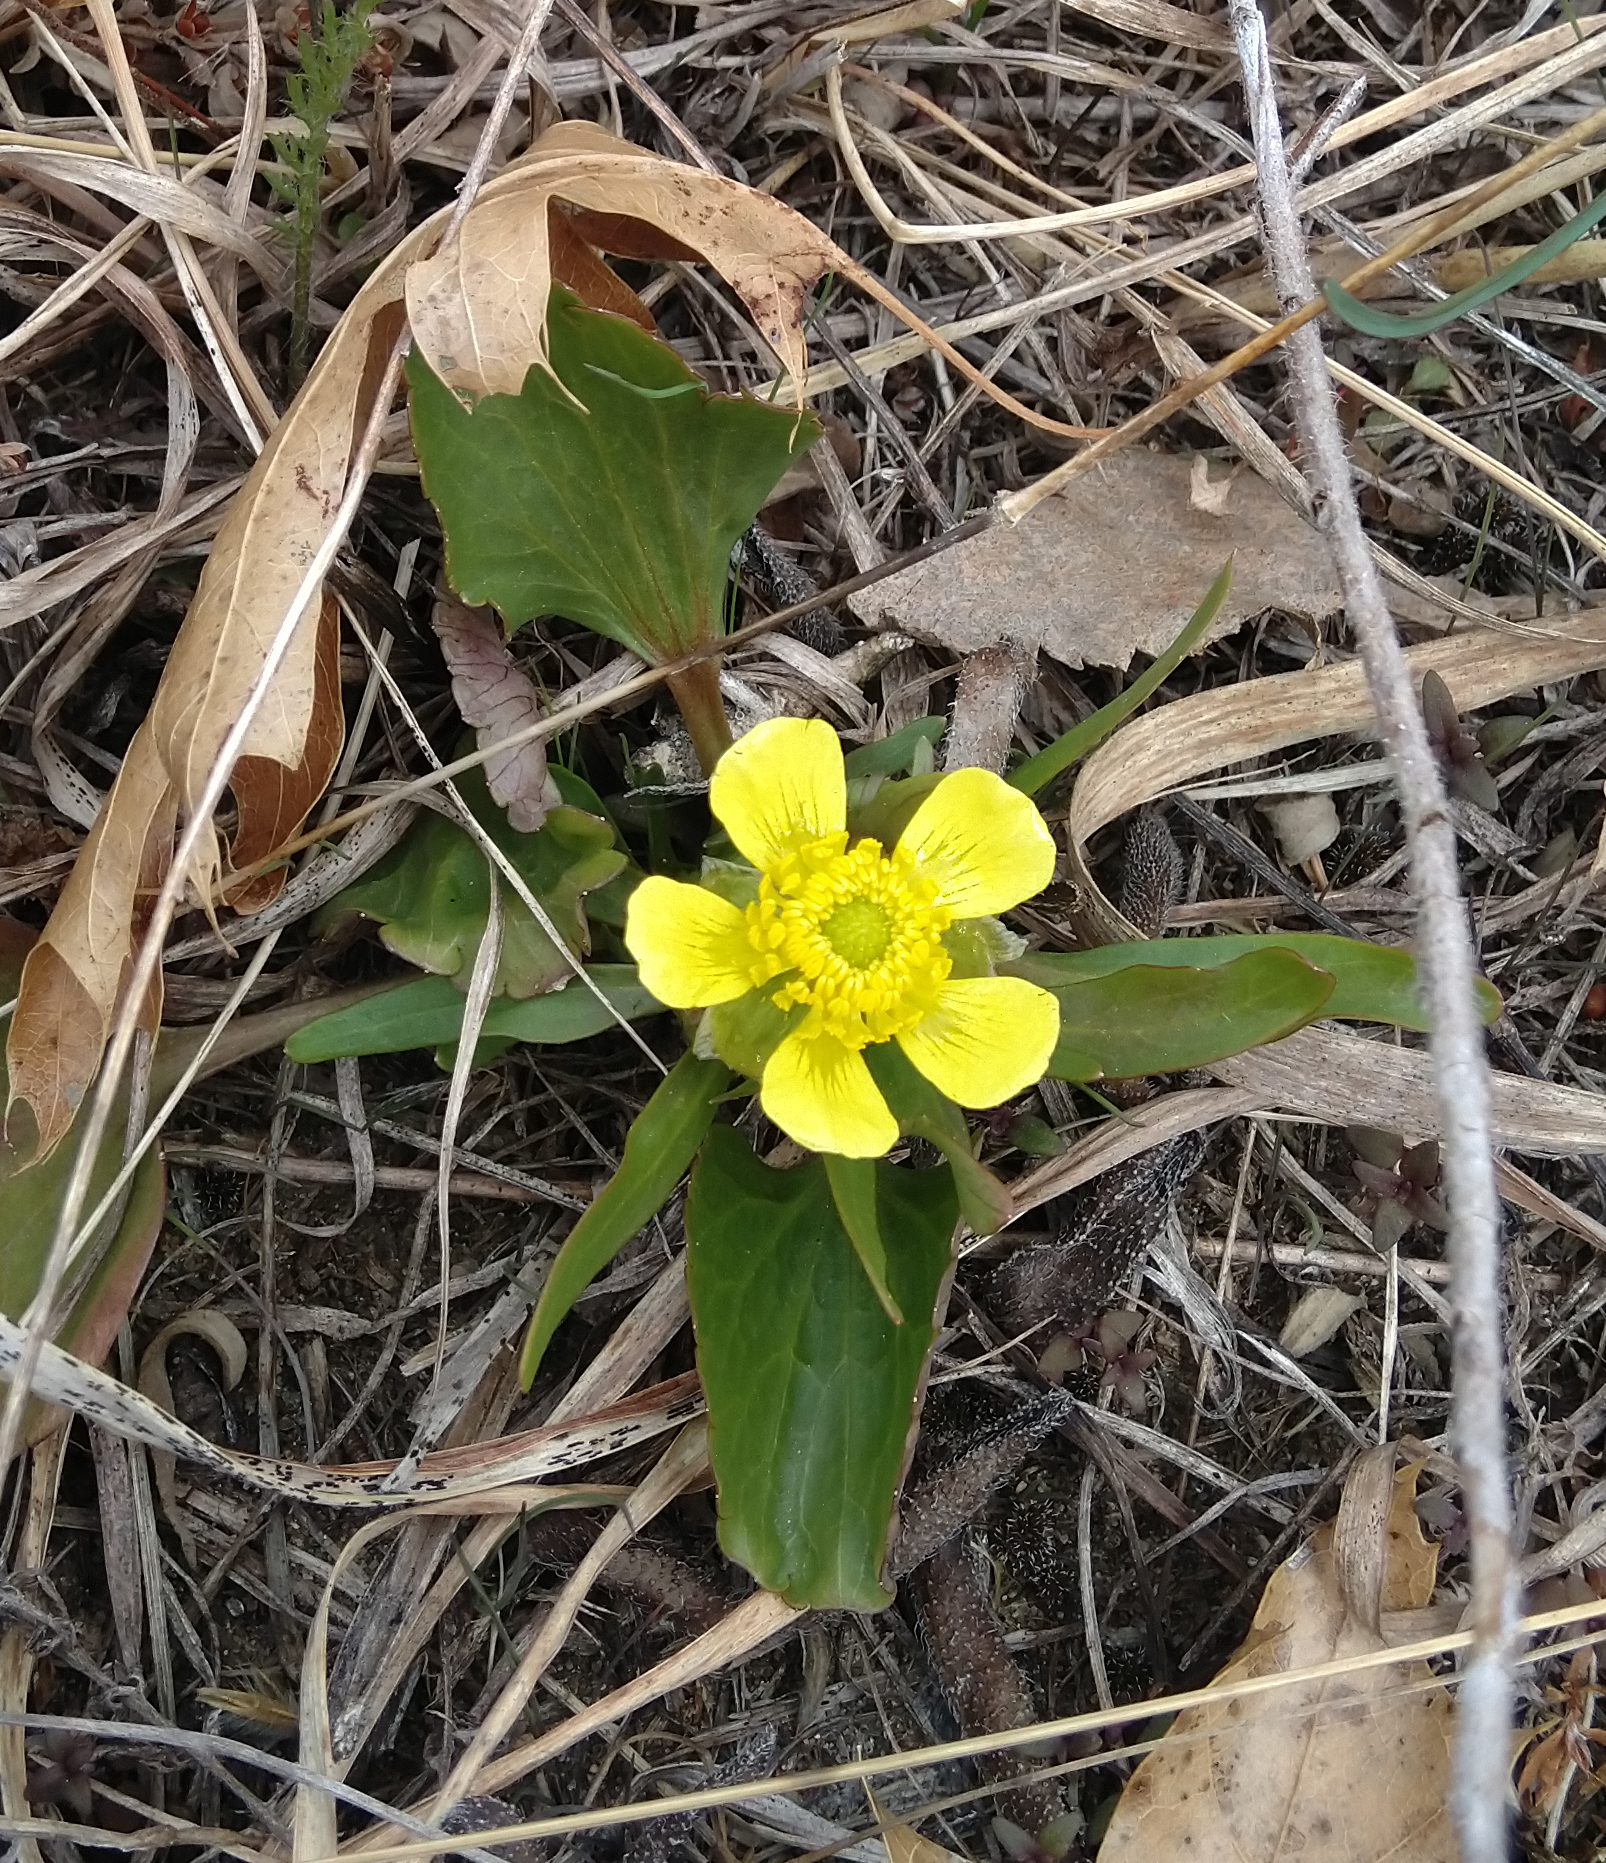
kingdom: Plantae
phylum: Tracheophyta
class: Magnoliopsida
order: Ranunculales
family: Ranunculaceae
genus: Ranunculus
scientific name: Ranunculus rhomboideus
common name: Prairie buttercup
